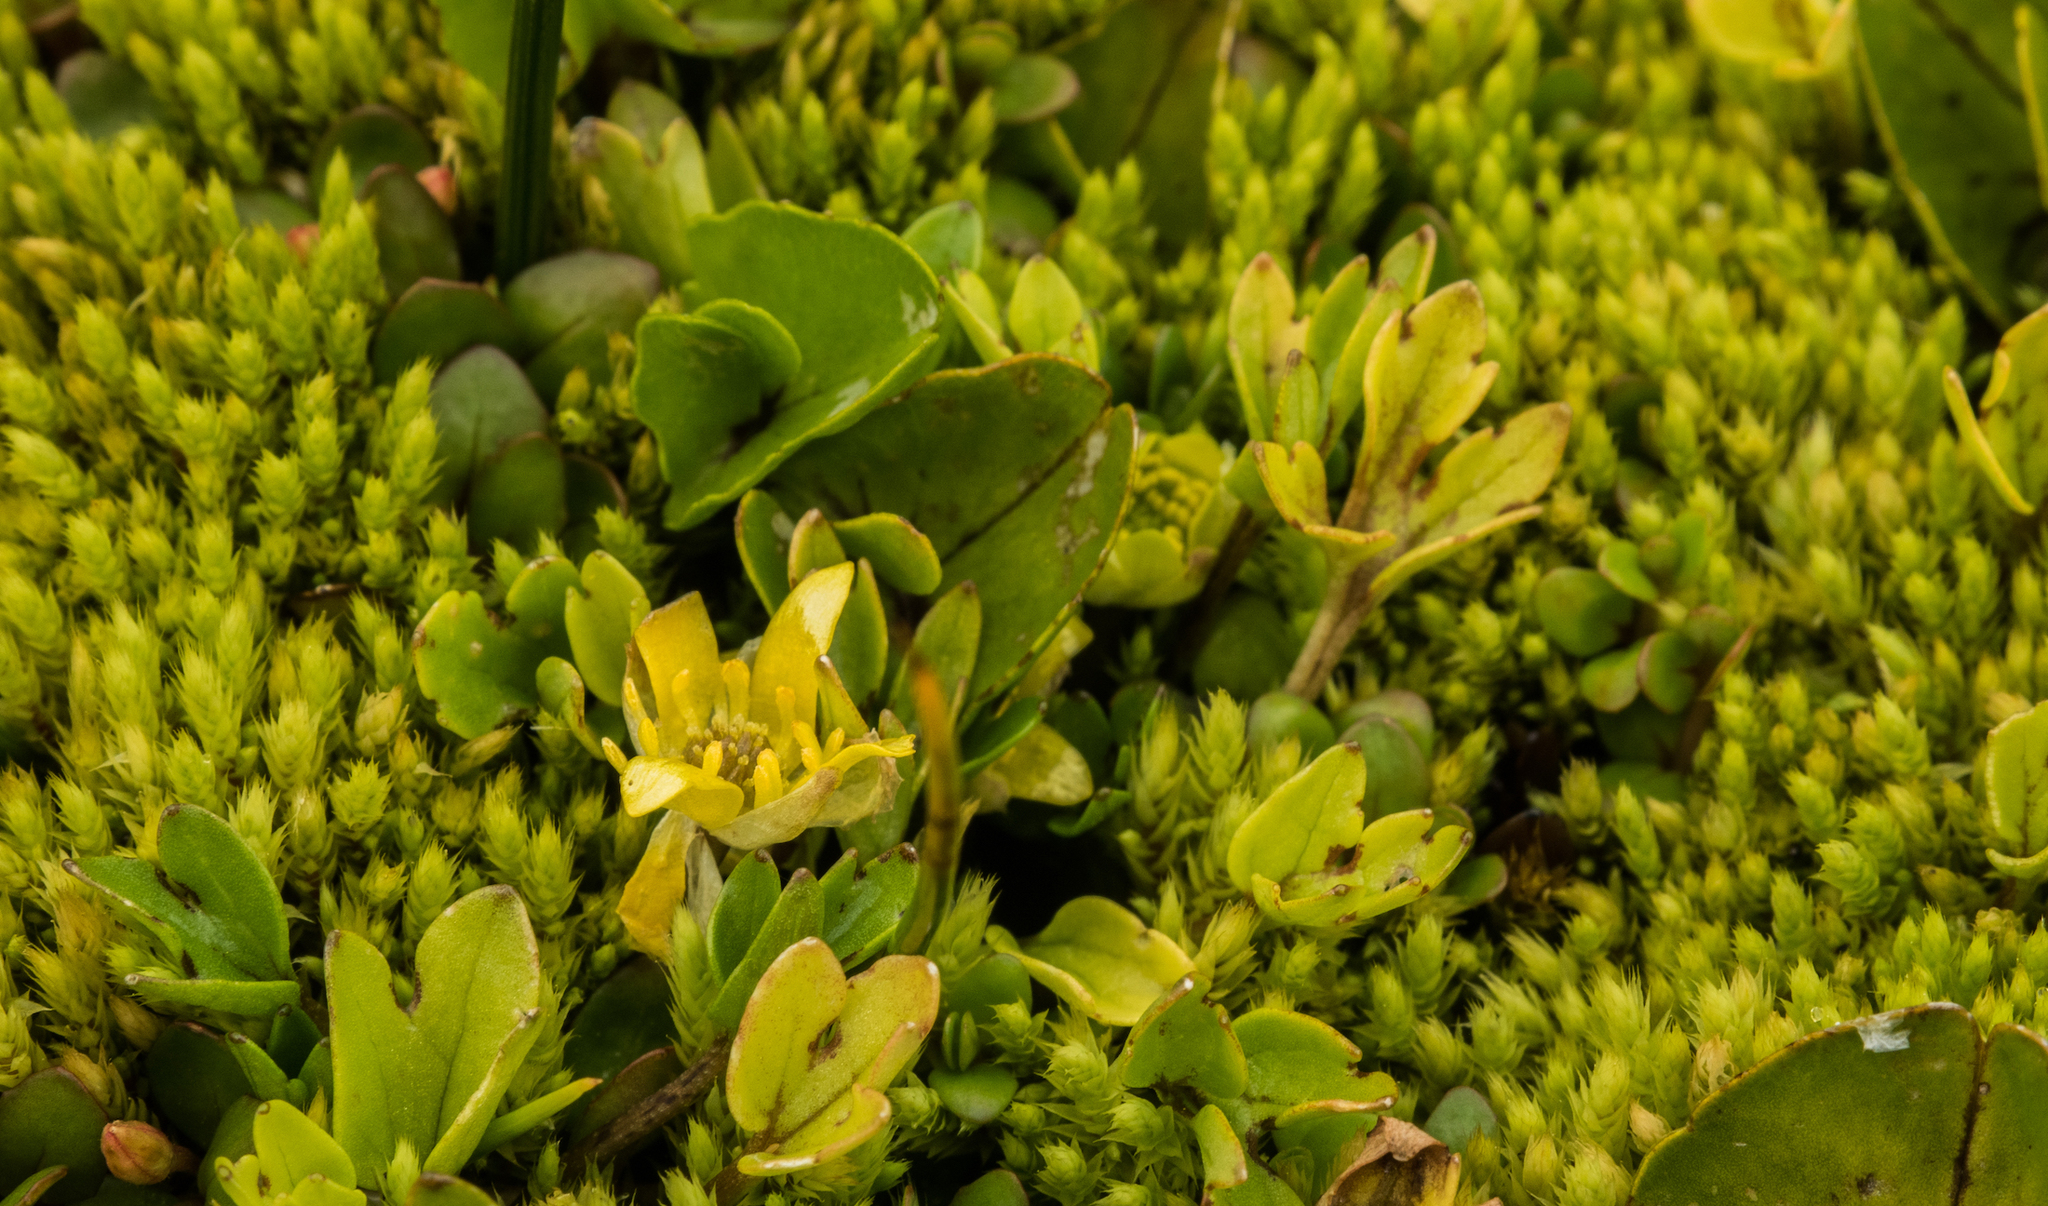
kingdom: Plantae
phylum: Tracheophyta
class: Magnoliopsida
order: Ranunculales
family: Ranunculaceae
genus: Ranunculus
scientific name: Ranunculus maculatus
